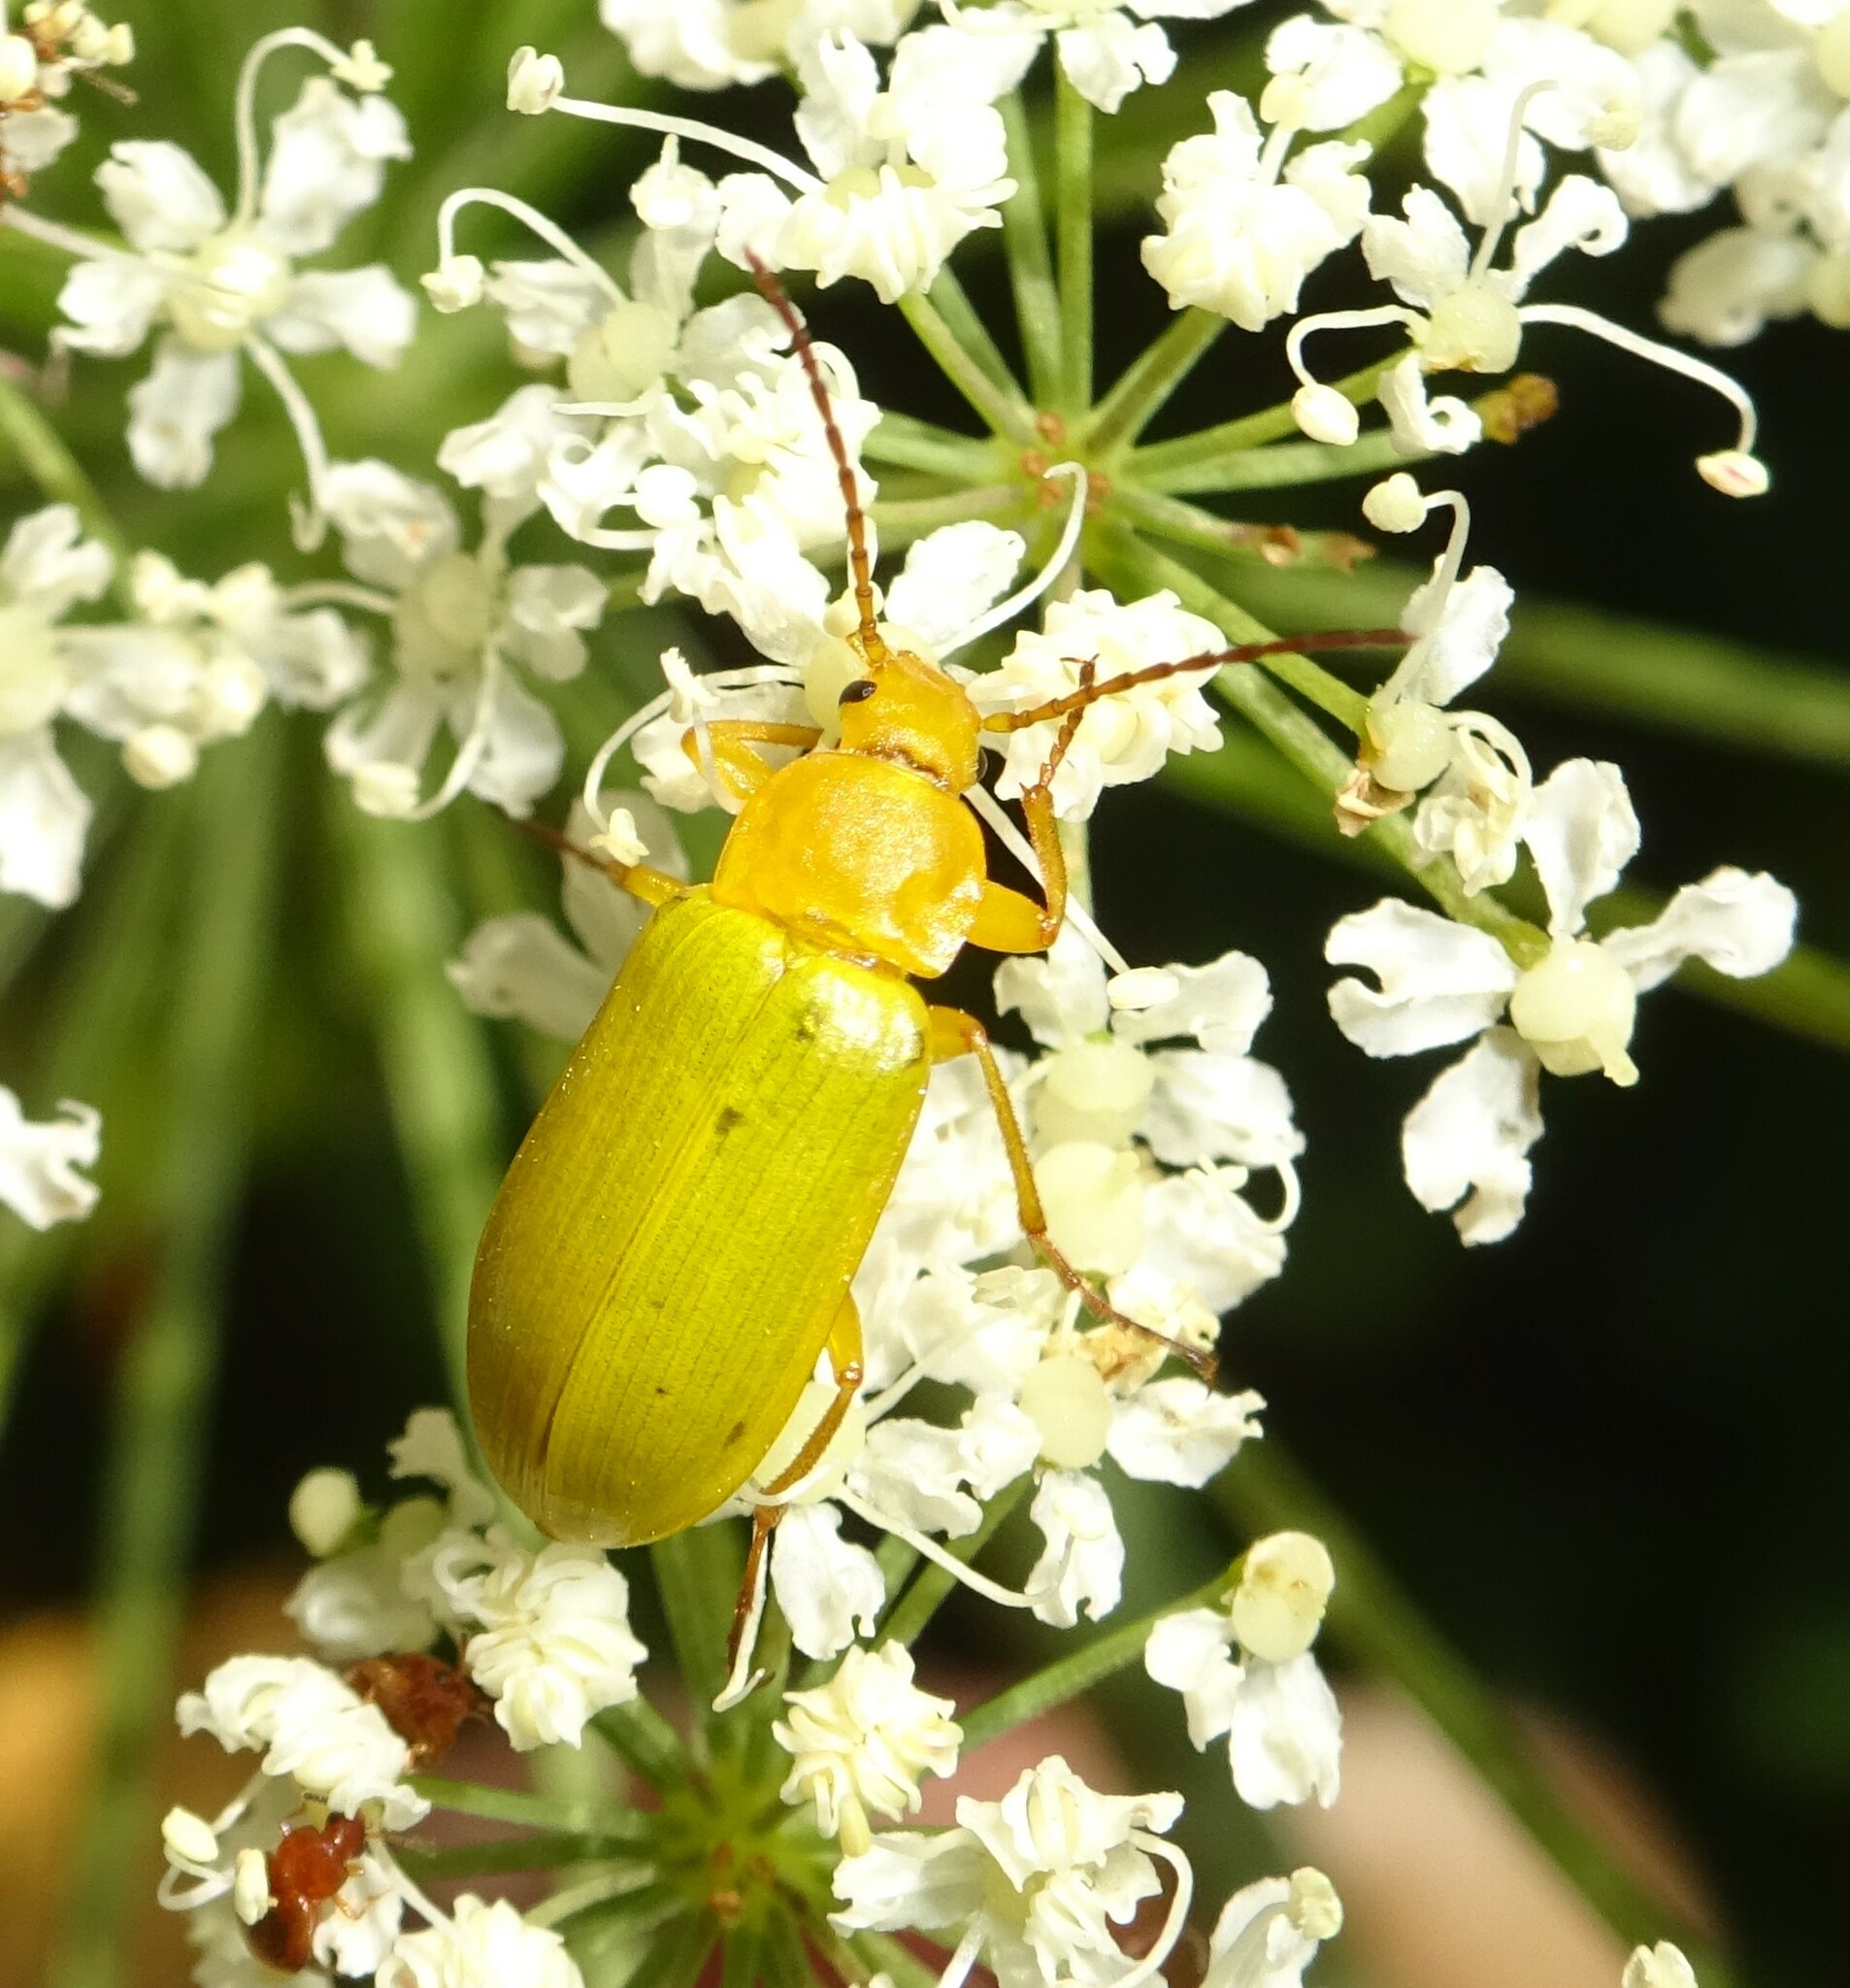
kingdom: Animalia
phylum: Arthropoda
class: Insecta
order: Coleoptera
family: Tenebrionidae
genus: Cteniopus
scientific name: Cteniopus sulphureus
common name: Sulphur beetle
